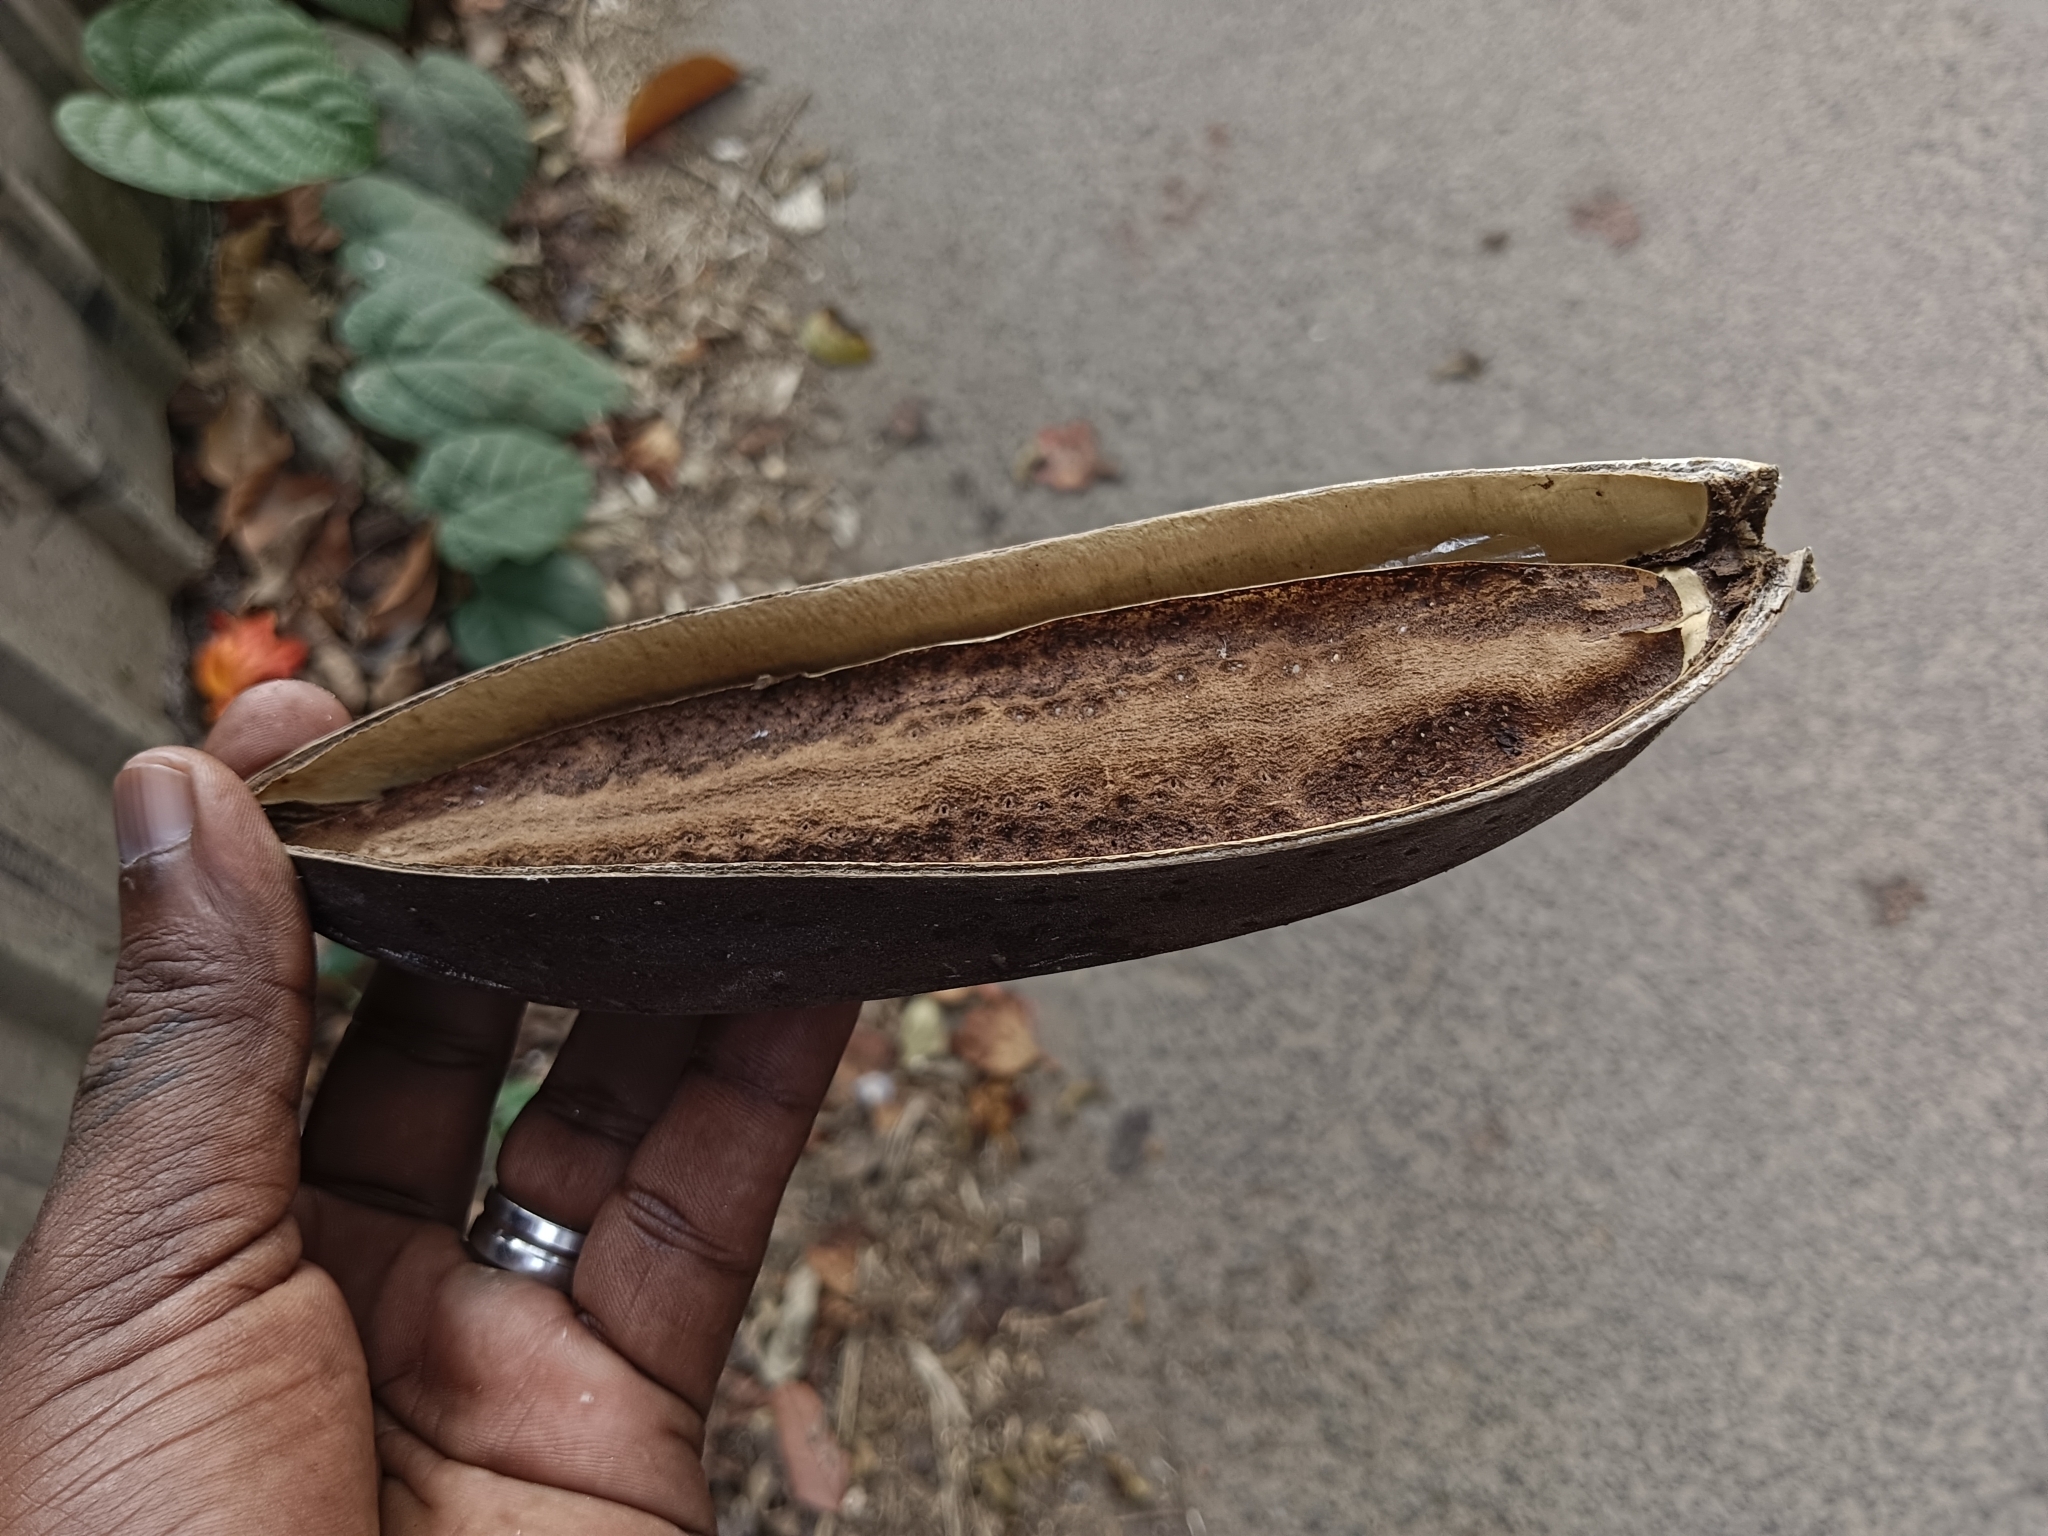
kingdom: Plantae
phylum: Tracheophyta
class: Magnoliopsida
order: Lamiales
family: Bignoniaceae
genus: Spathodea
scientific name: Spathodea campanulata
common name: African tuliptree
